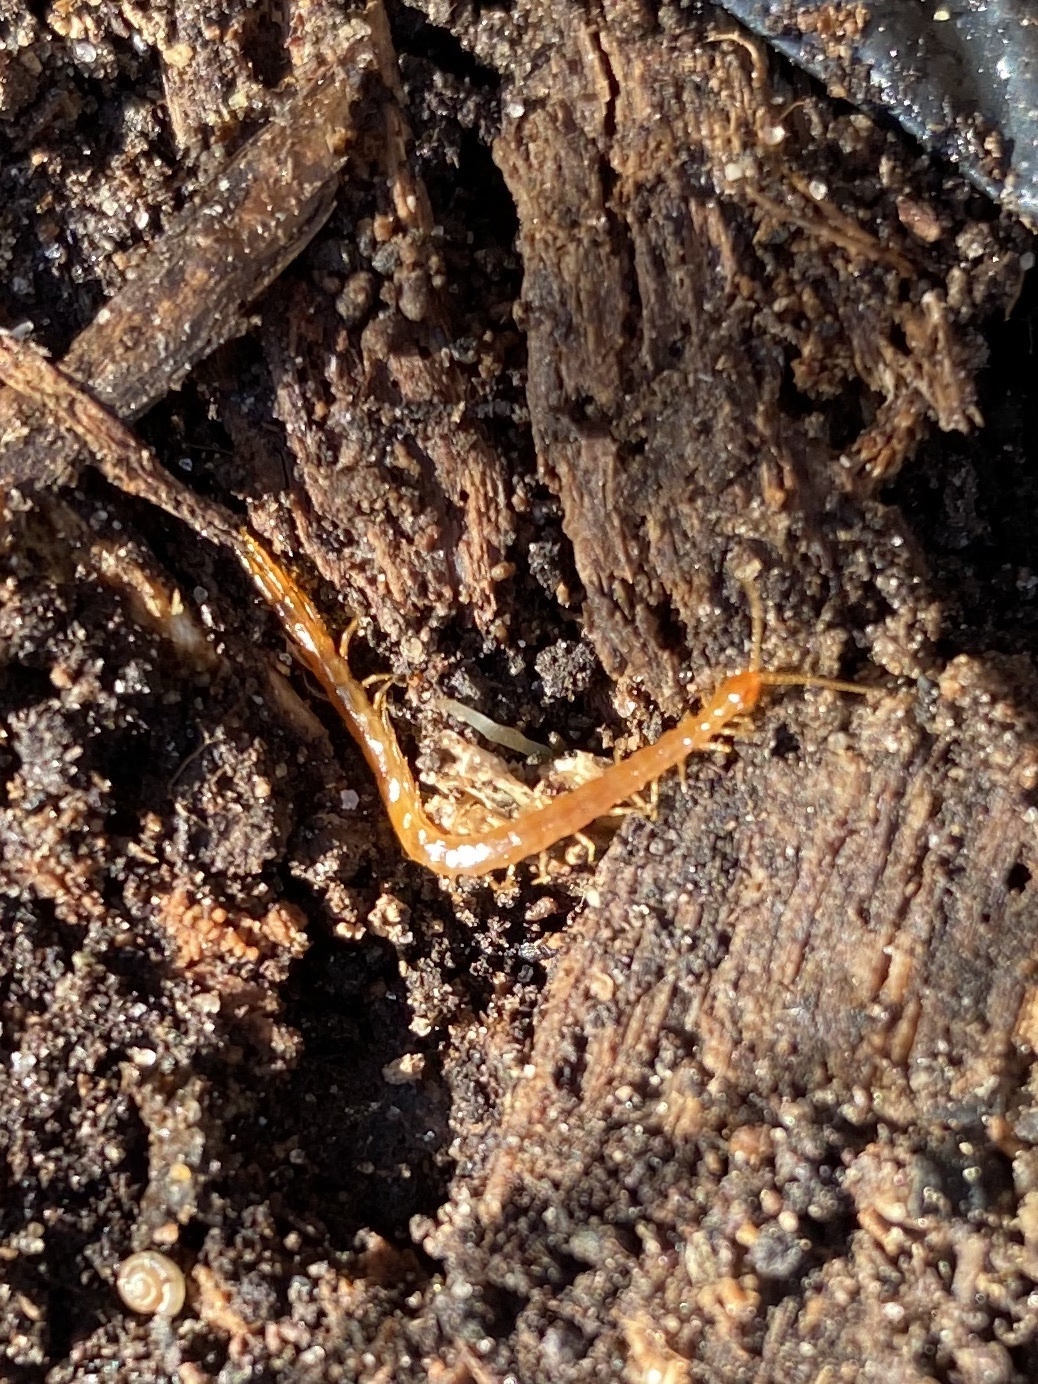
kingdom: Animalia
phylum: Arthropoda
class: Chilopoda
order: Scolopendromorpha
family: Cryptopidae
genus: Cryptops
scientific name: Cryptops
